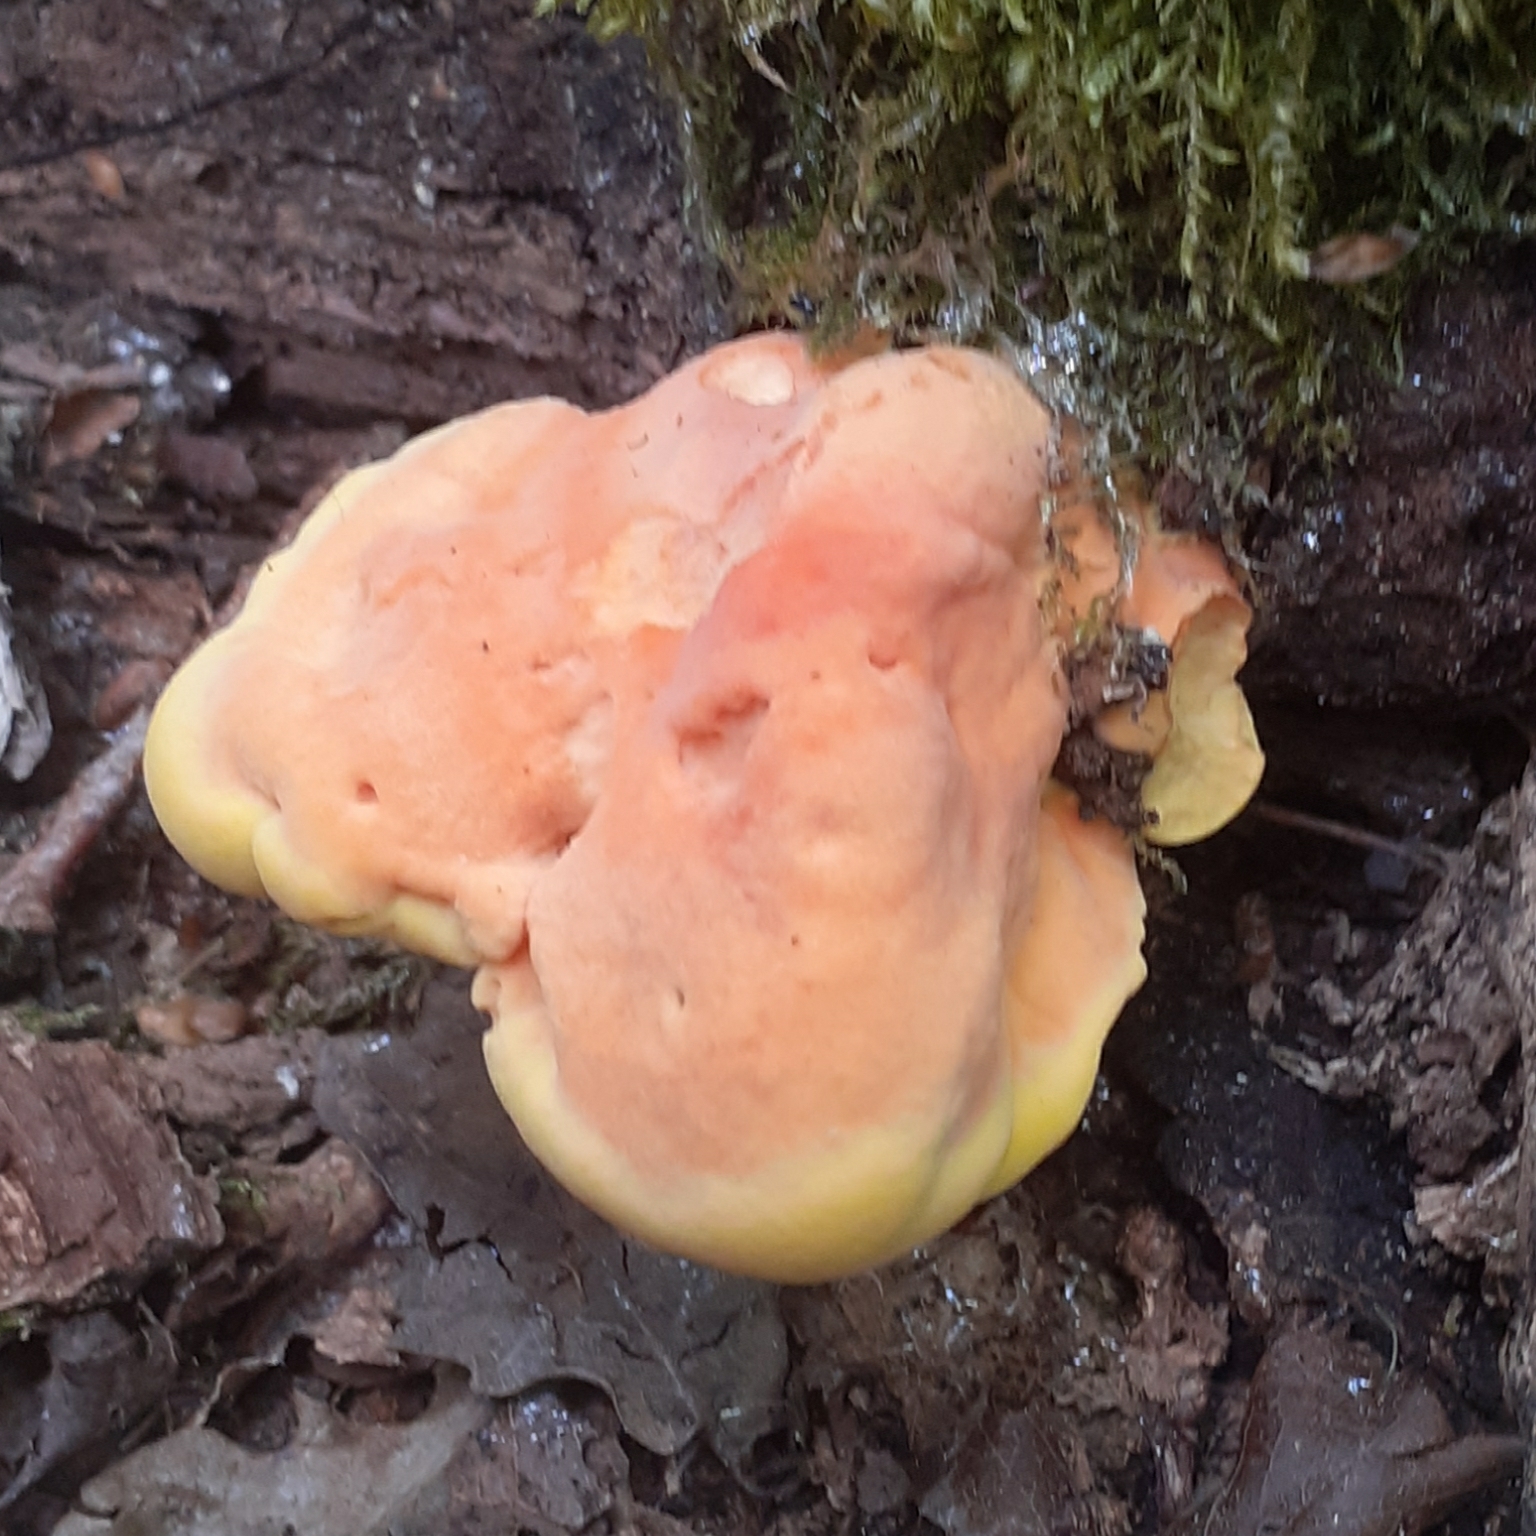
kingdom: Fungi
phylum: Basidiomycota
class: Agaricomycetes
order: Polyporales
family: Laetiporaceae
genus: Laetiporus
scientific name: Laetiporus sulphureus
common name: Chicken of the woods
